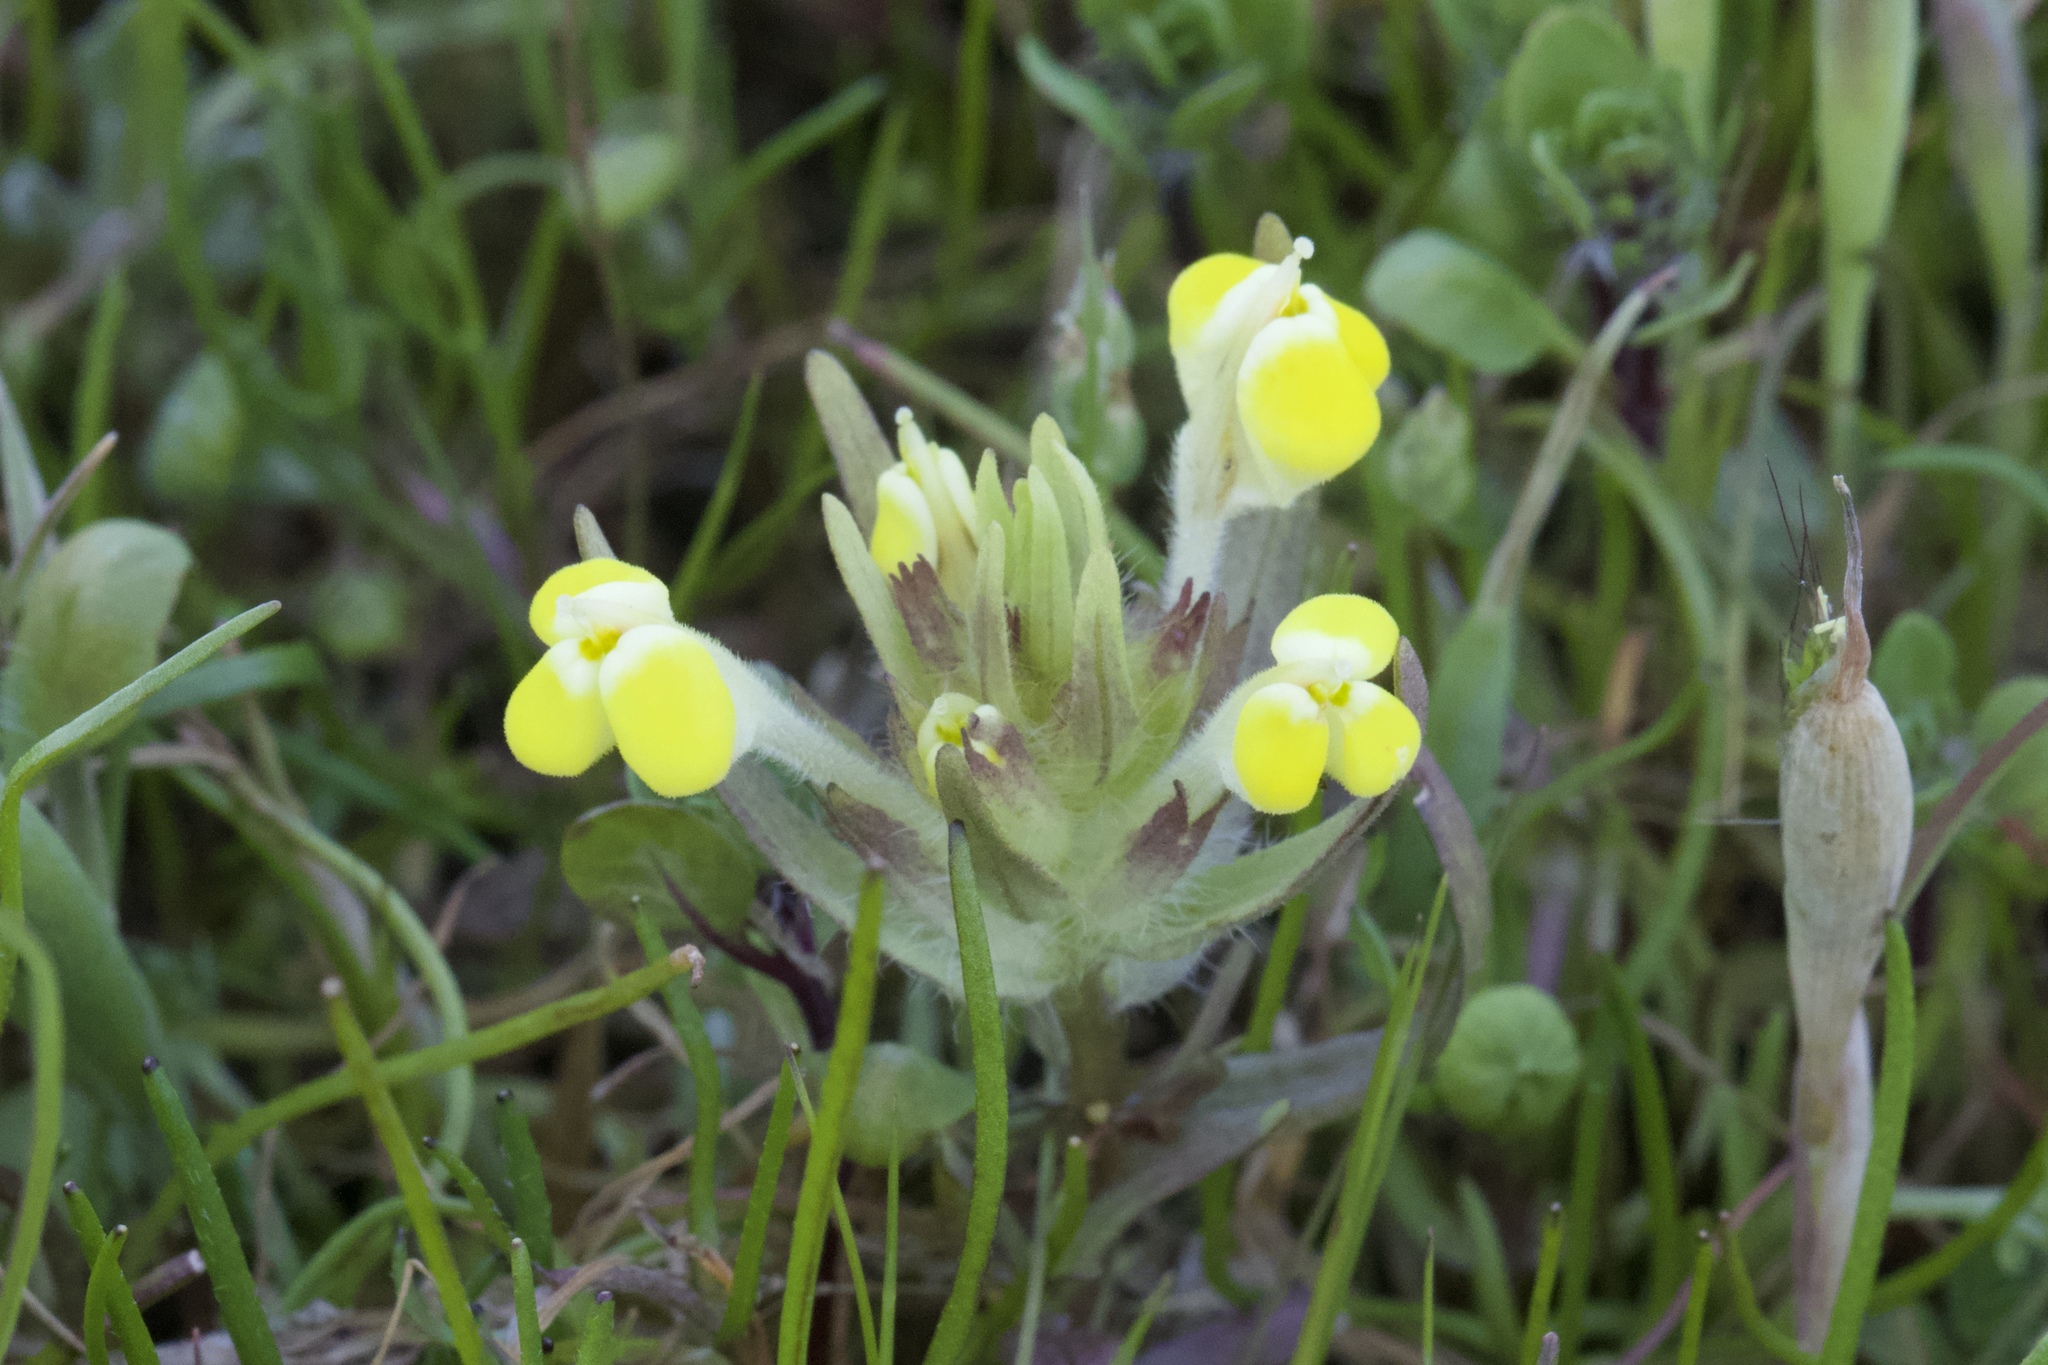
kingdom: Plantae
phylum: Tracheophyta
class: Magnoliopsida
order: Lamiales
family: Orobanchaceae
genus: Castilleja
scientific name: Castilleja campestris
